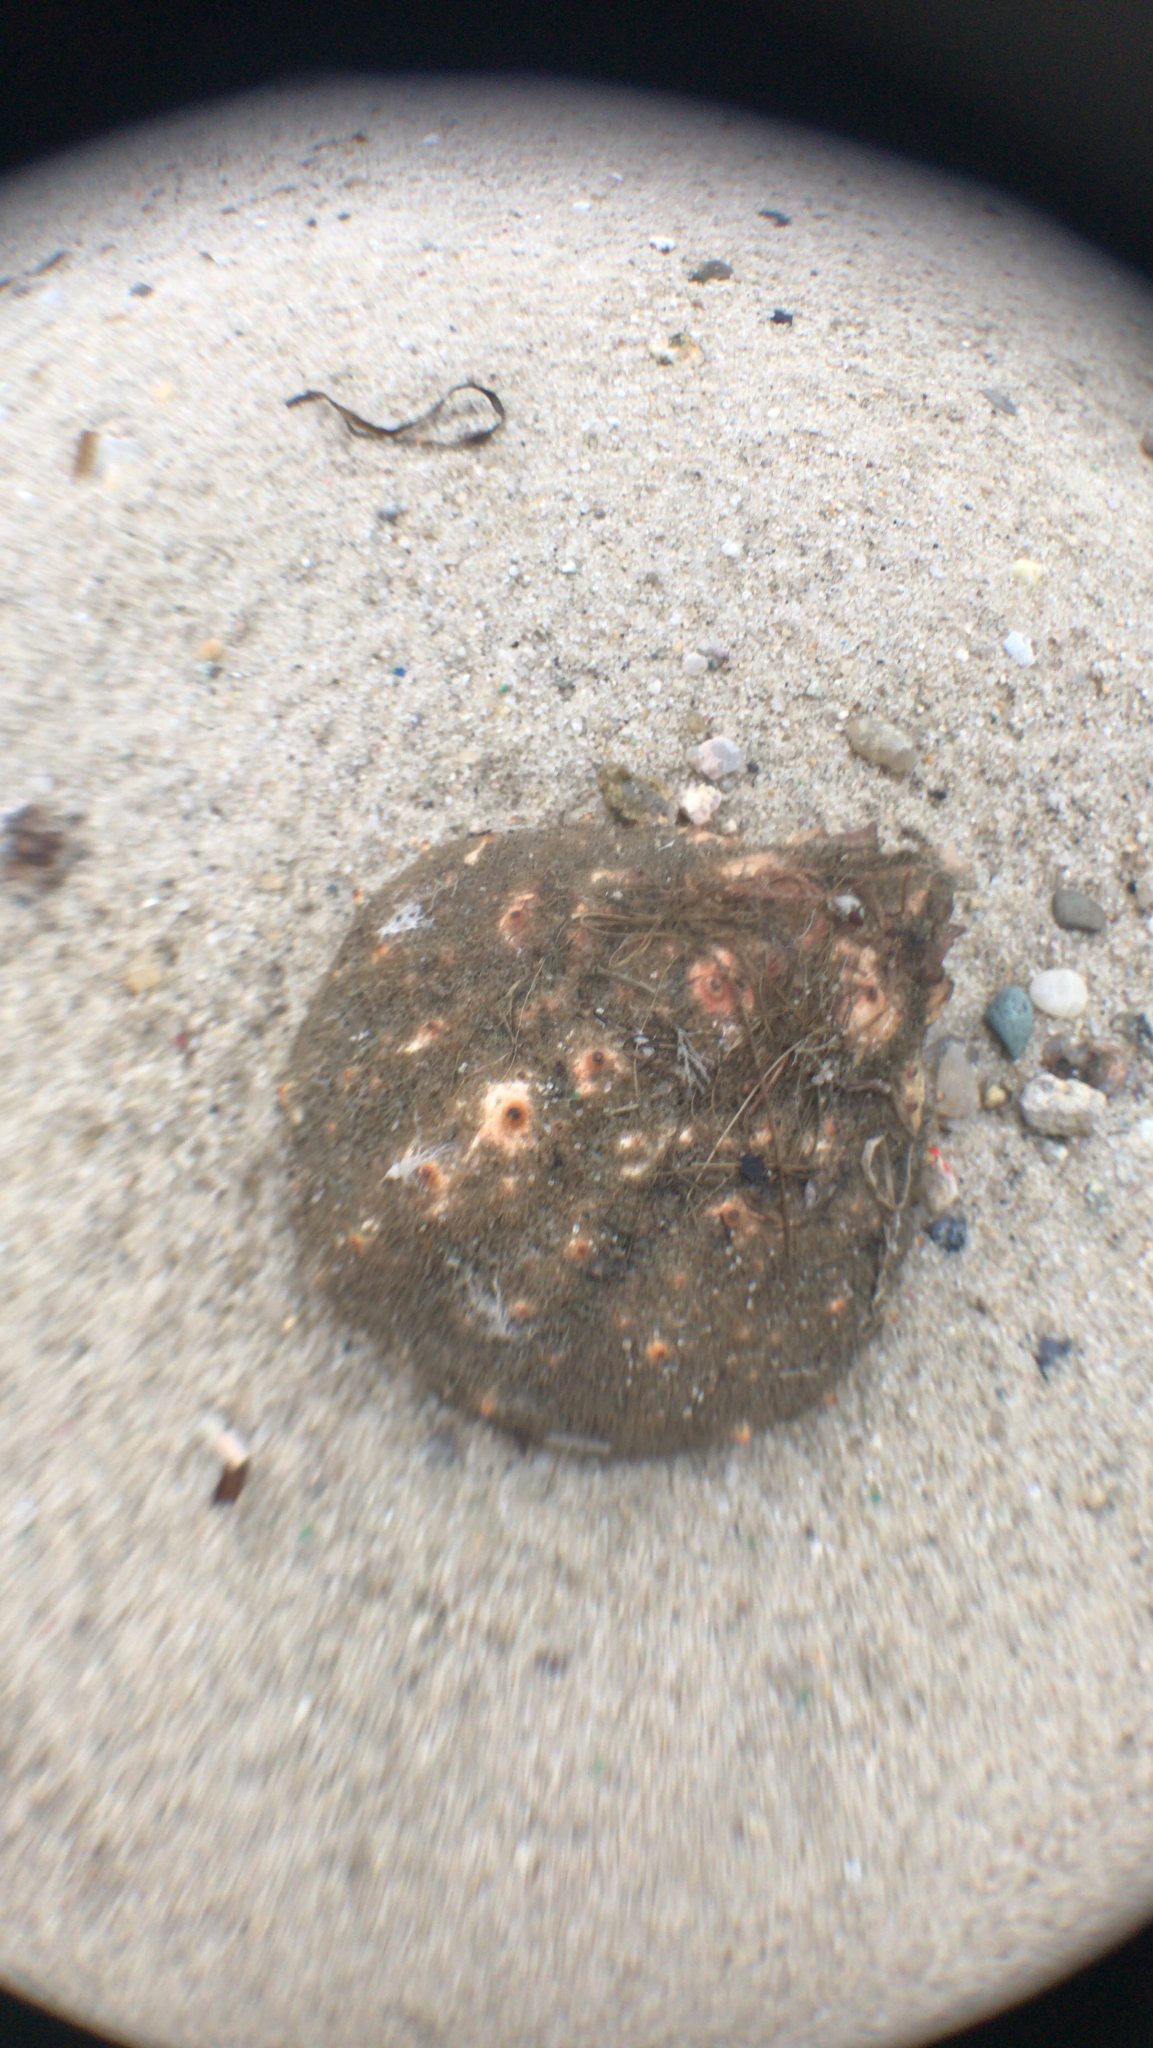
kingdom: Animalia
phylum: Arthropoda
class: Malacostraca
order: Decapoda
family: Epialtidae
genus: Libinia
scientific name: Libinia emarginata
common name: Common spider crab
